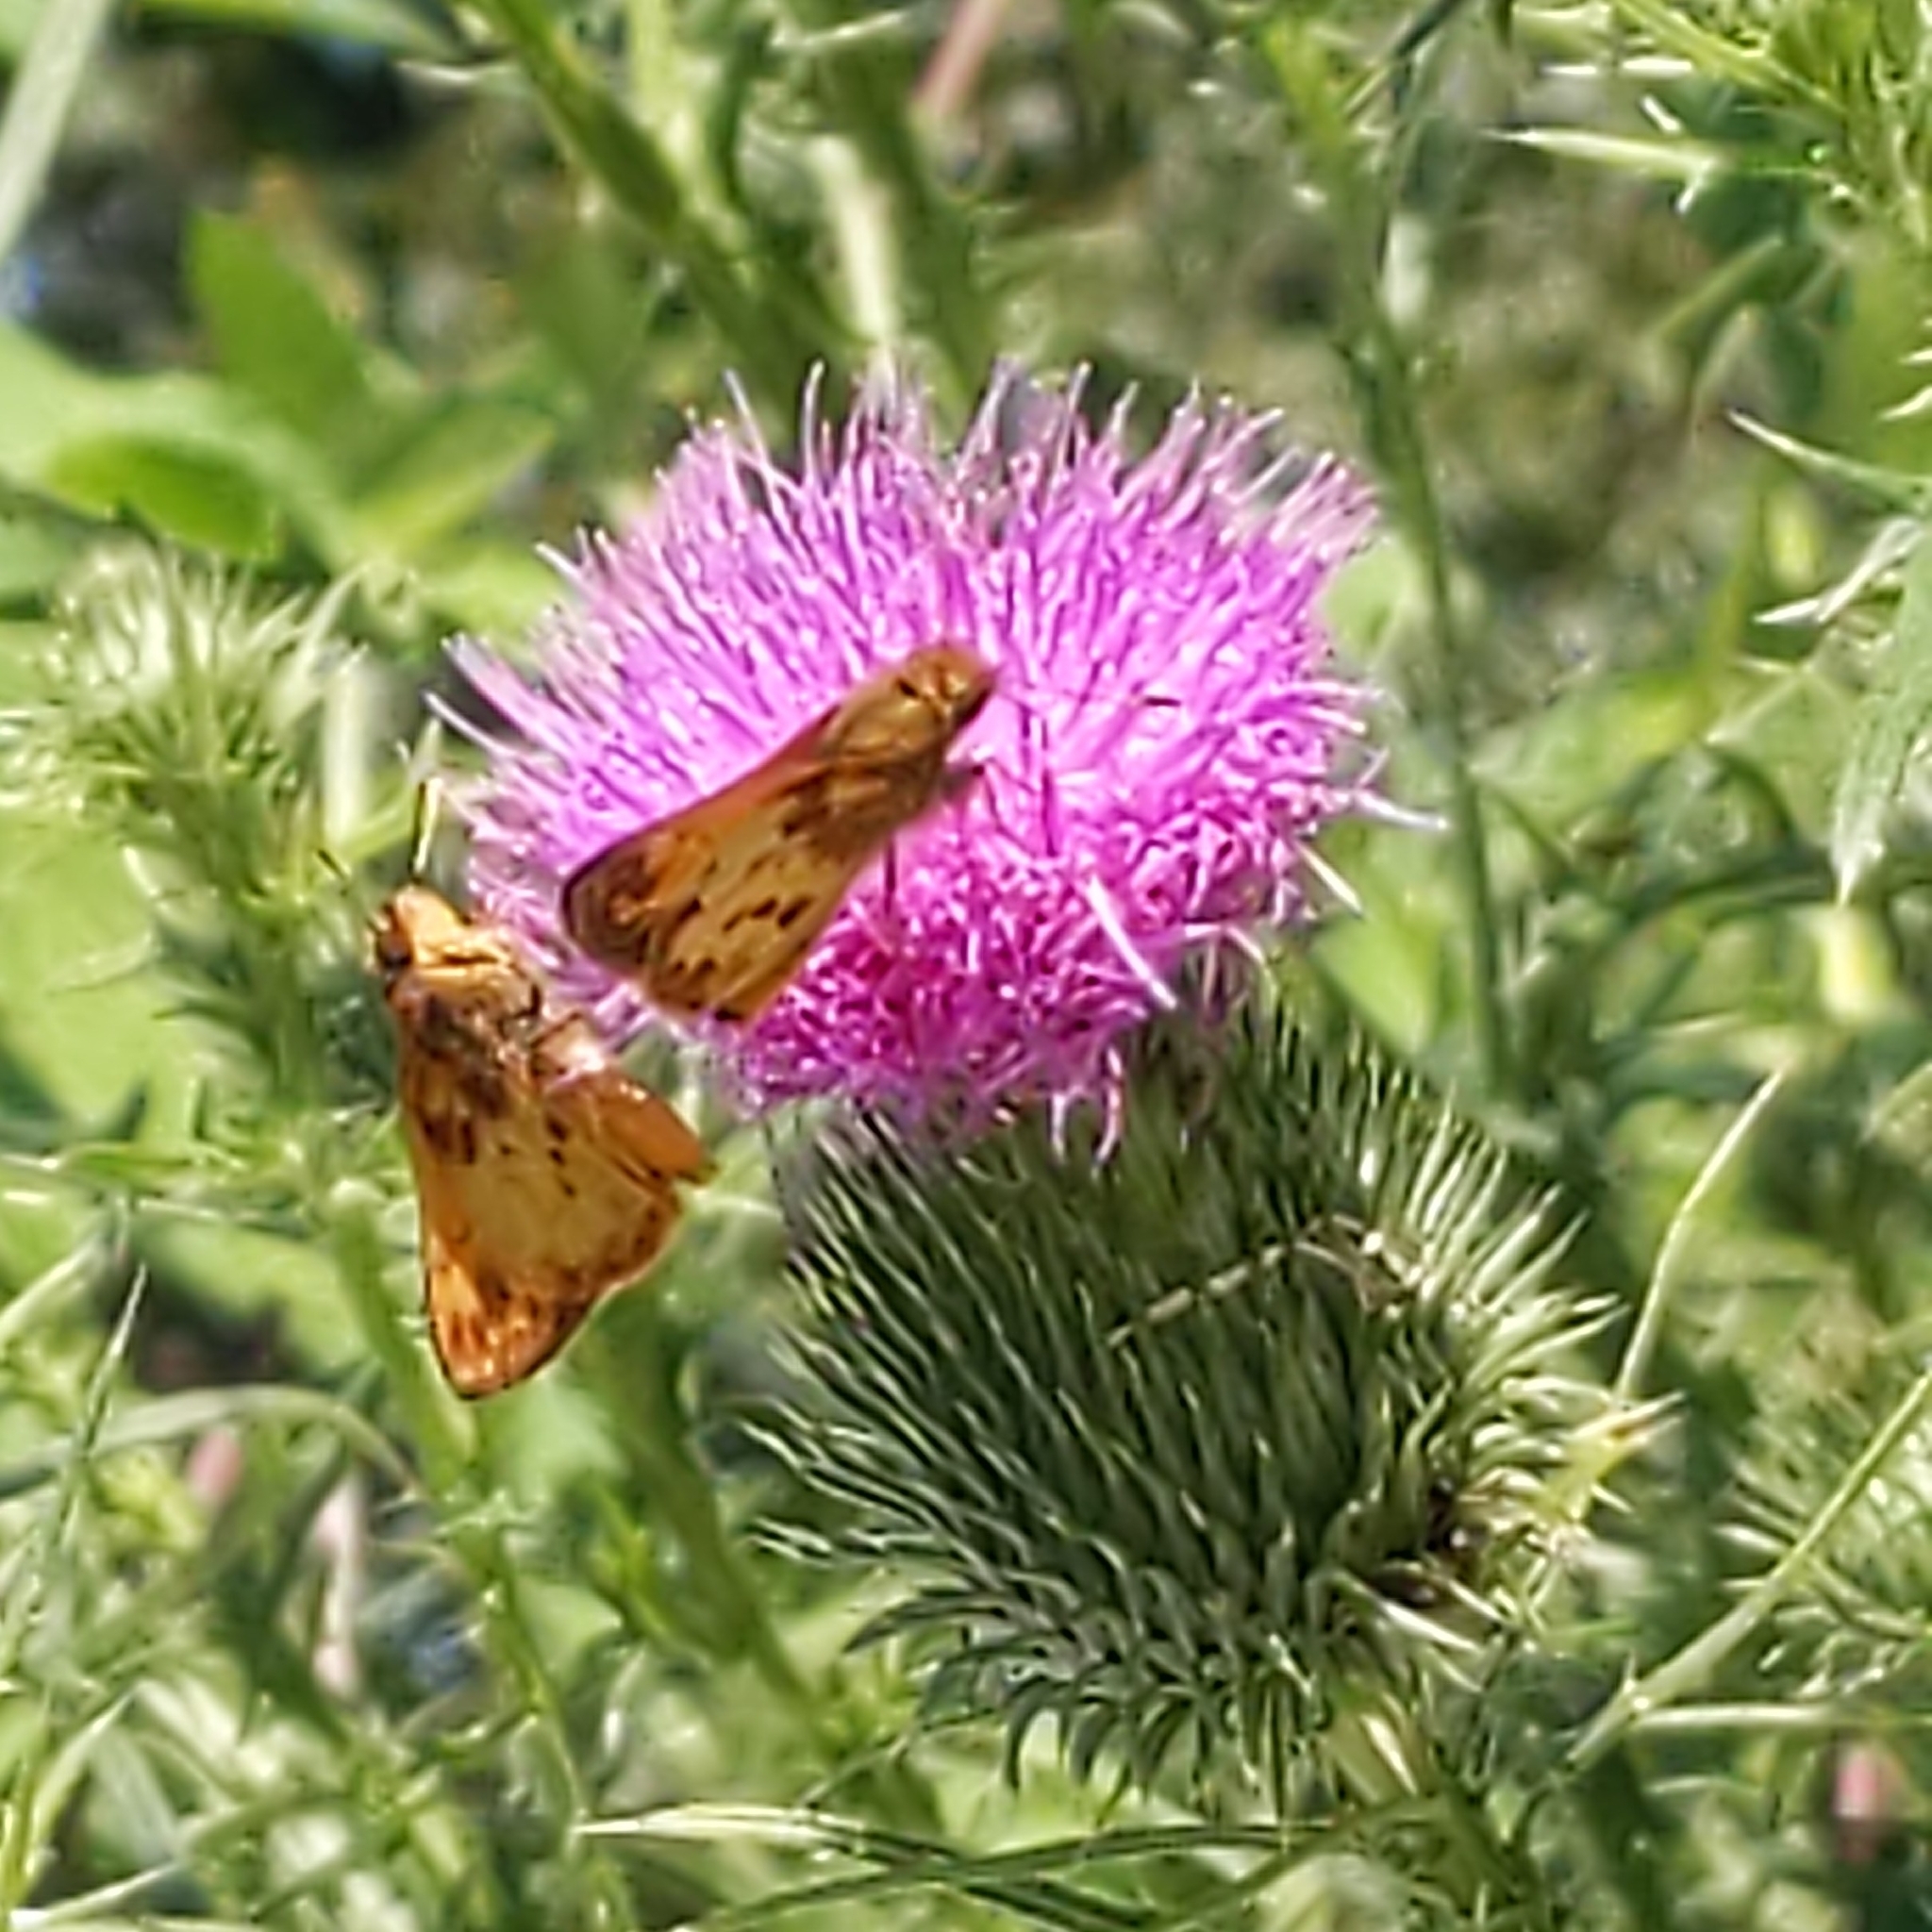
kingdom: Animalia
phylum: Arthropoda
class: Insecta
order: Lepidoptera
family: Hesperiidae
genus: Lon
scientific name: Lon zabulon
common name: Zabulon skipper
